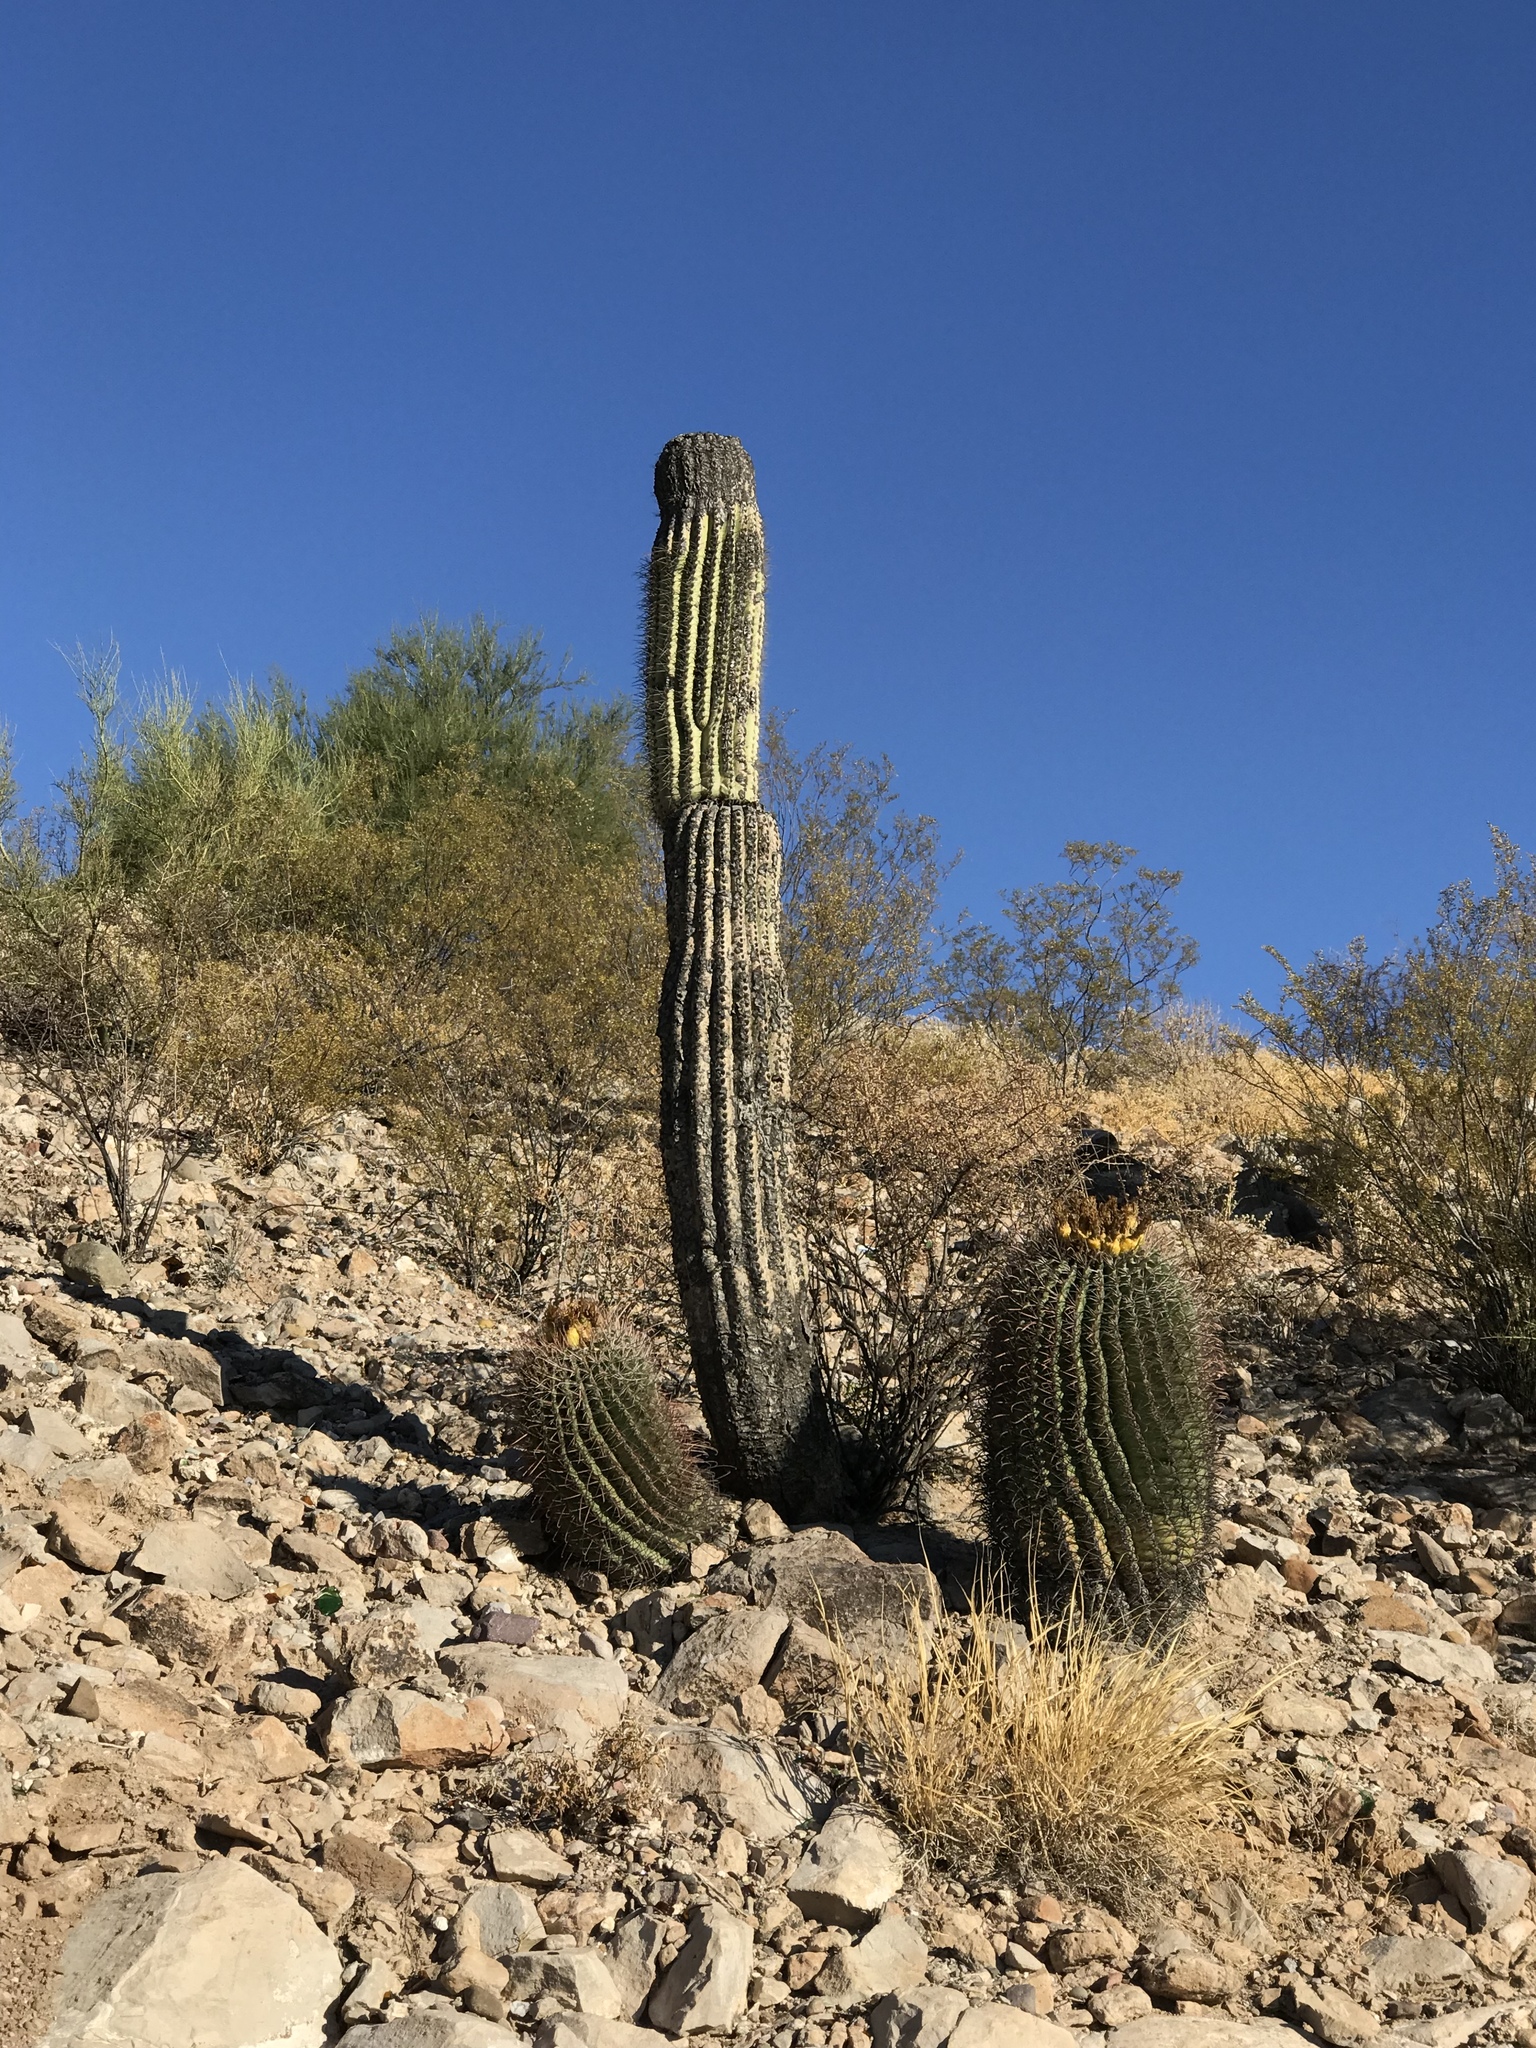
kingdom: Plantae
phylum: Tracheophyta
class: Magnoliopsida
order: Caryophyllales
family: Cactaceae
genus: Carnegiea
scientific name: Carnegiea gigantea
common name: Saguaro
